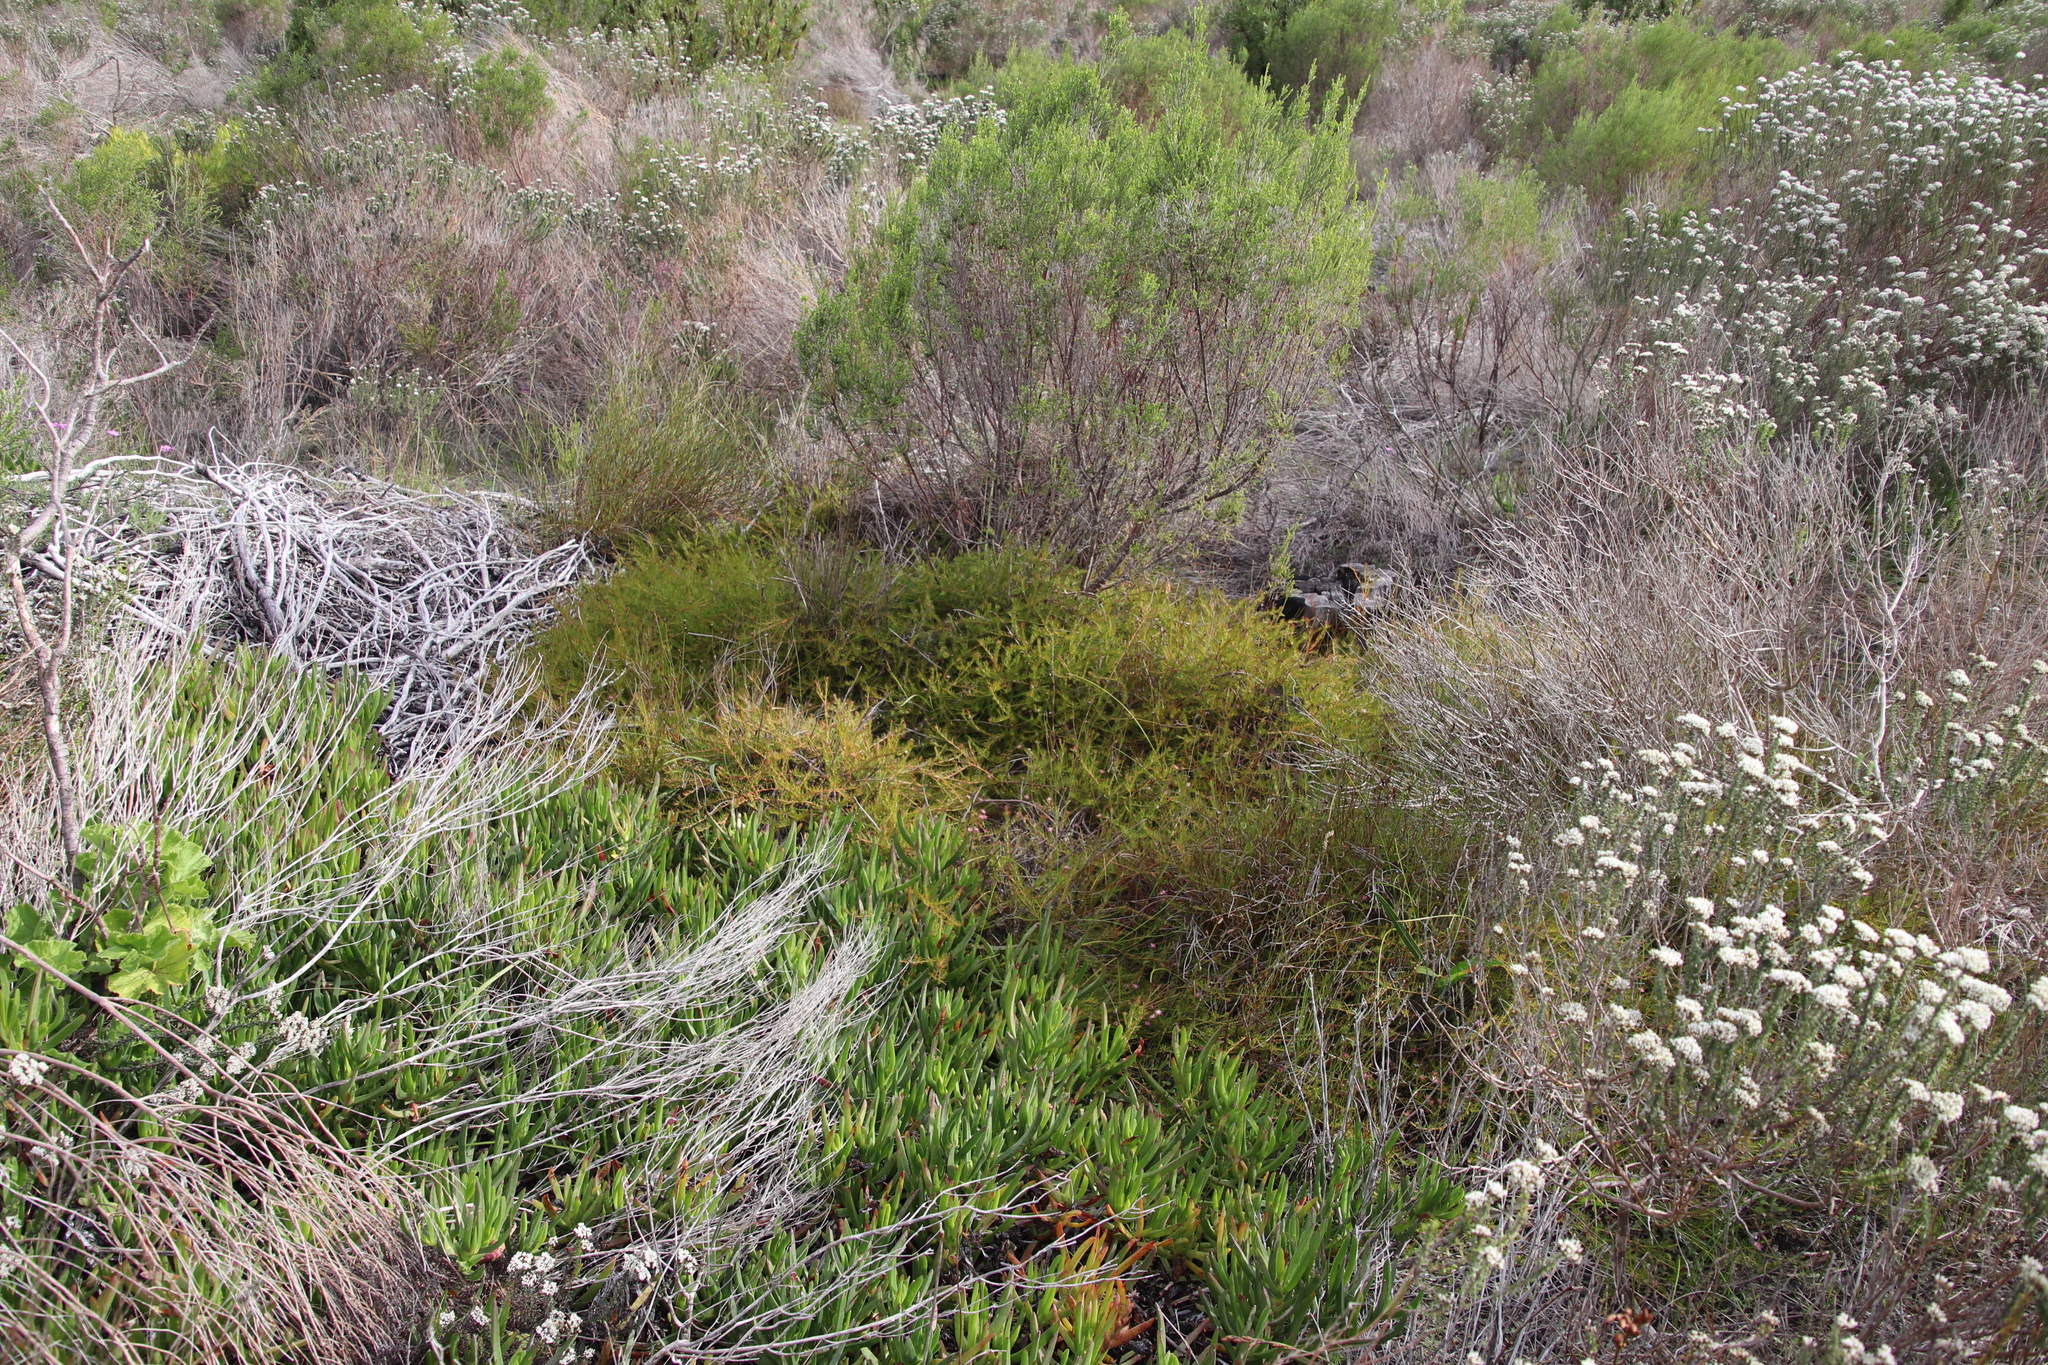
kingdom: Plantae
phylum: Tracheophyta
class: Magnoliopsida
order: Proteales
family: Proteaceae
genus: Diastella
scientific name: Diastella proteoides
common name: Flats silkypuff
